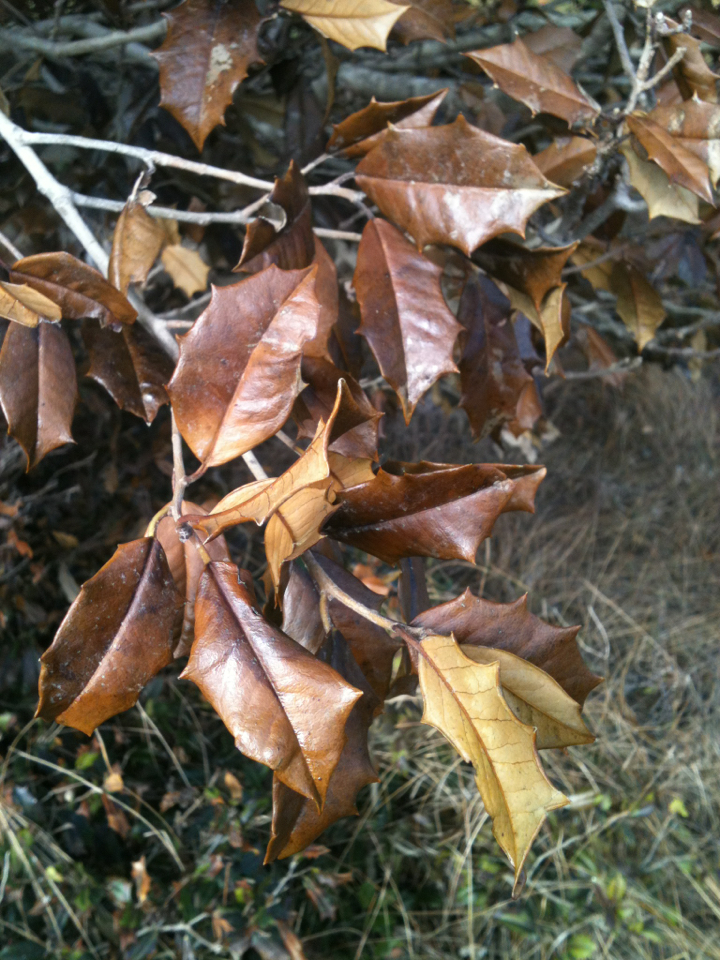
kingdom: Plantae
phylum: Tracheophyta
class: Magnoliopsida
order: Aquifoliales
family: Aquifoliaceae
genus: Ilex
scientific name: Ilex opaca
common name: American holly
